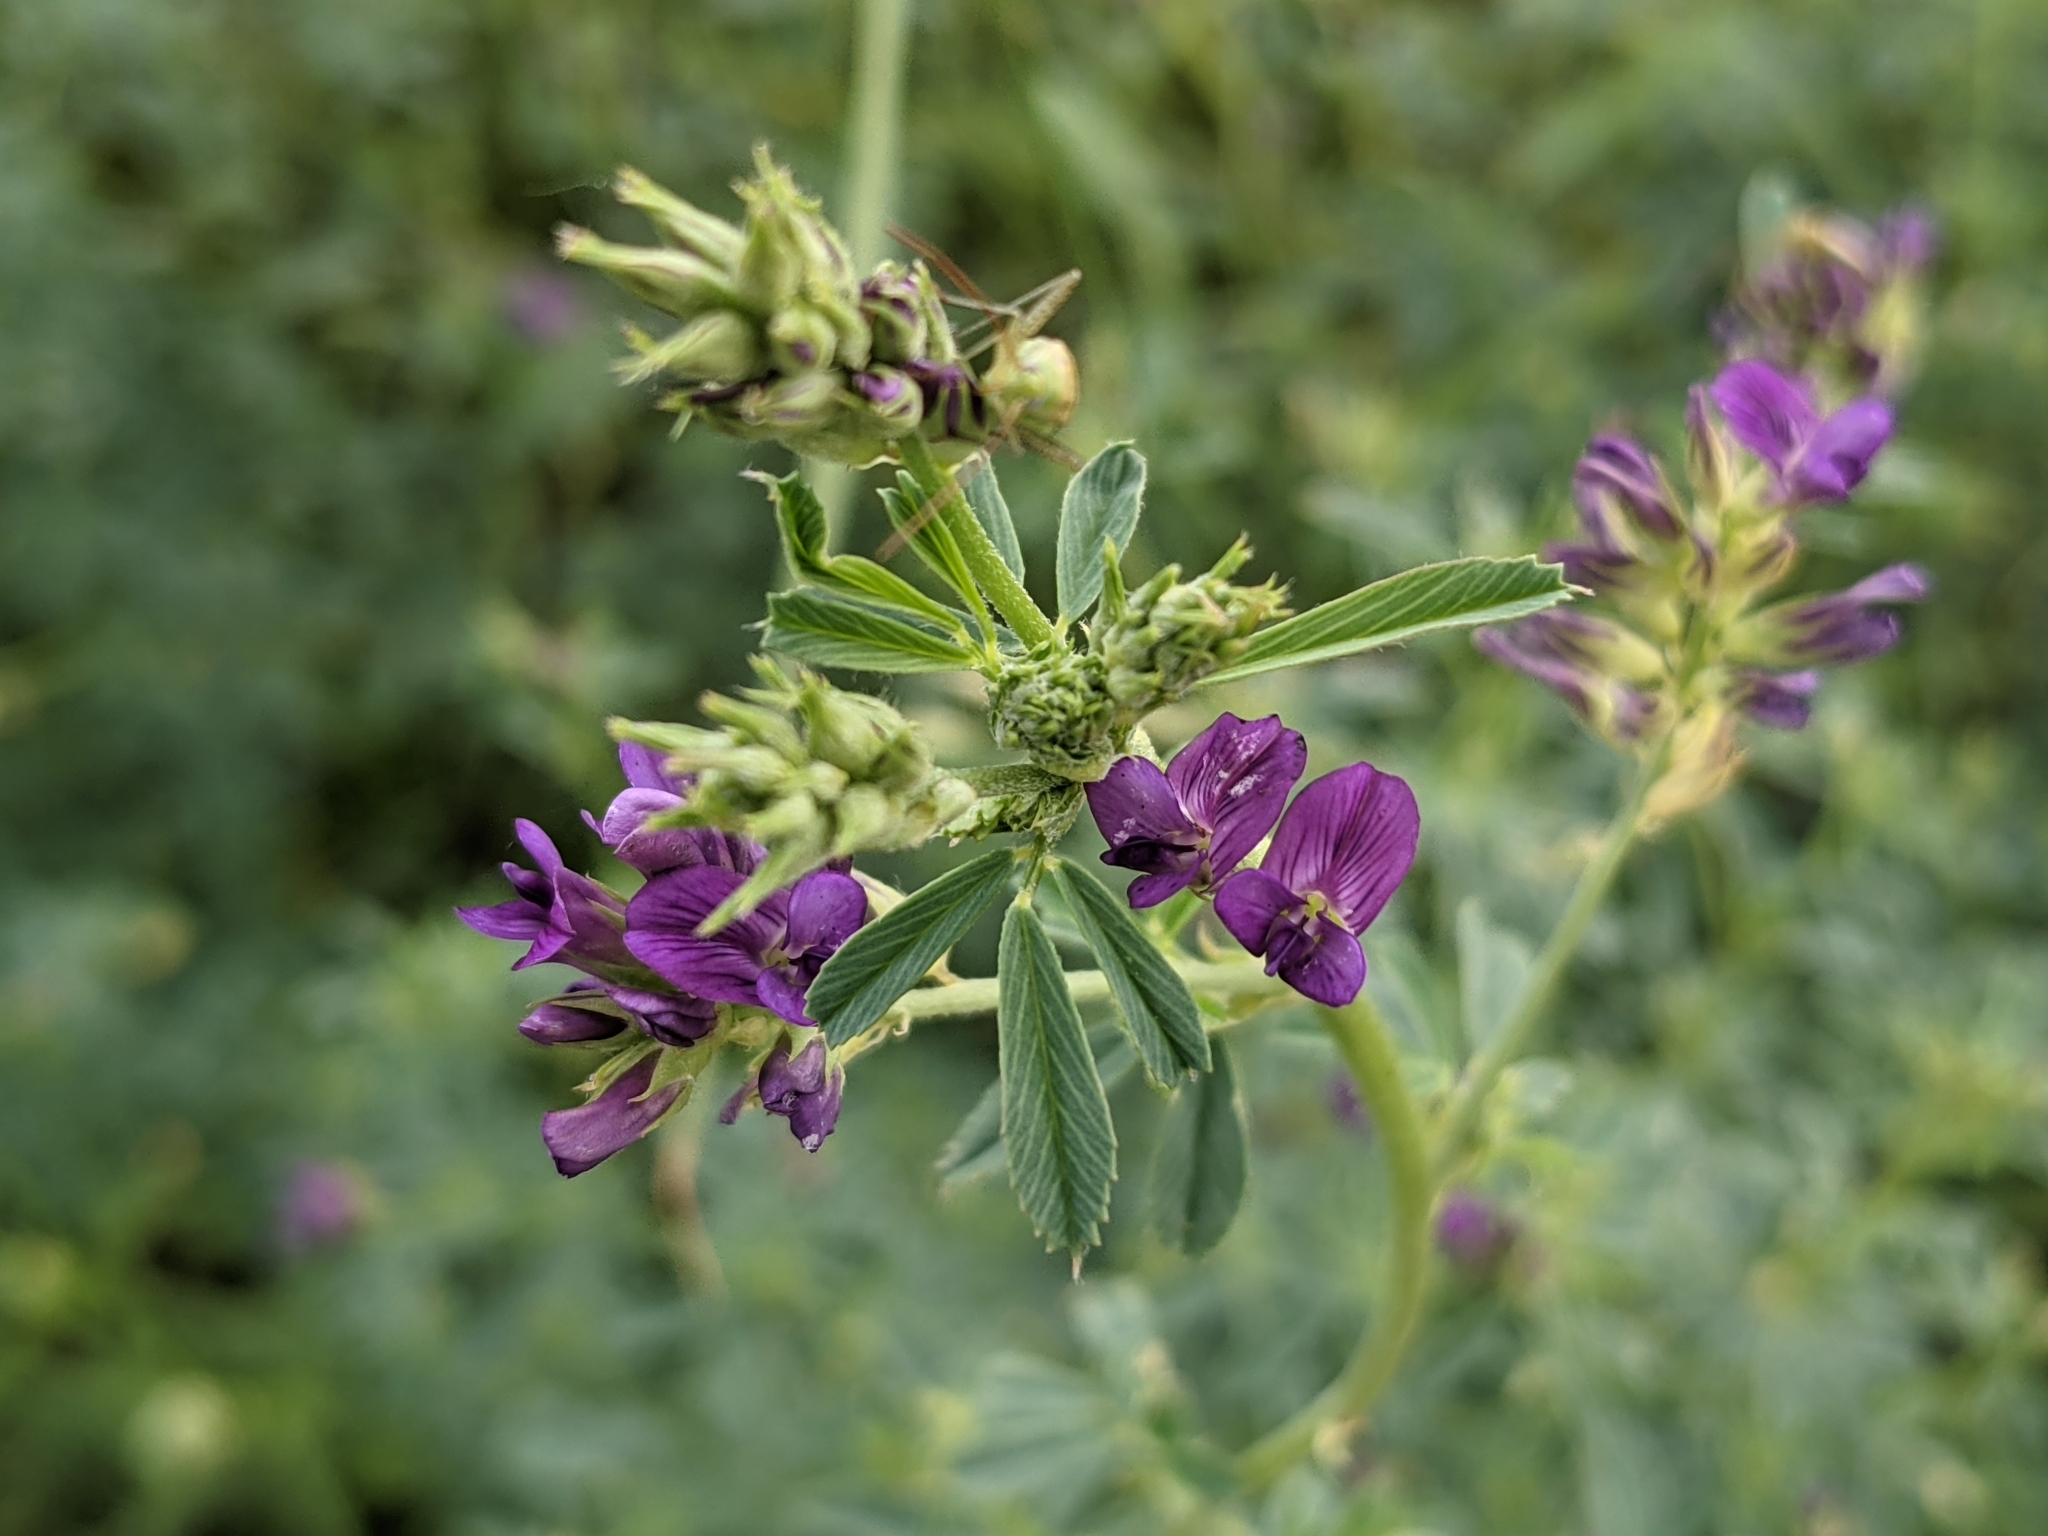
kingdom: Plantae
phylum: Tracheophyta
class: Magnoliopsida
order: Fabales
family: Fabaceae
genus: Medicago
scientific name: Medicago sativa
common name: Alfalfa
